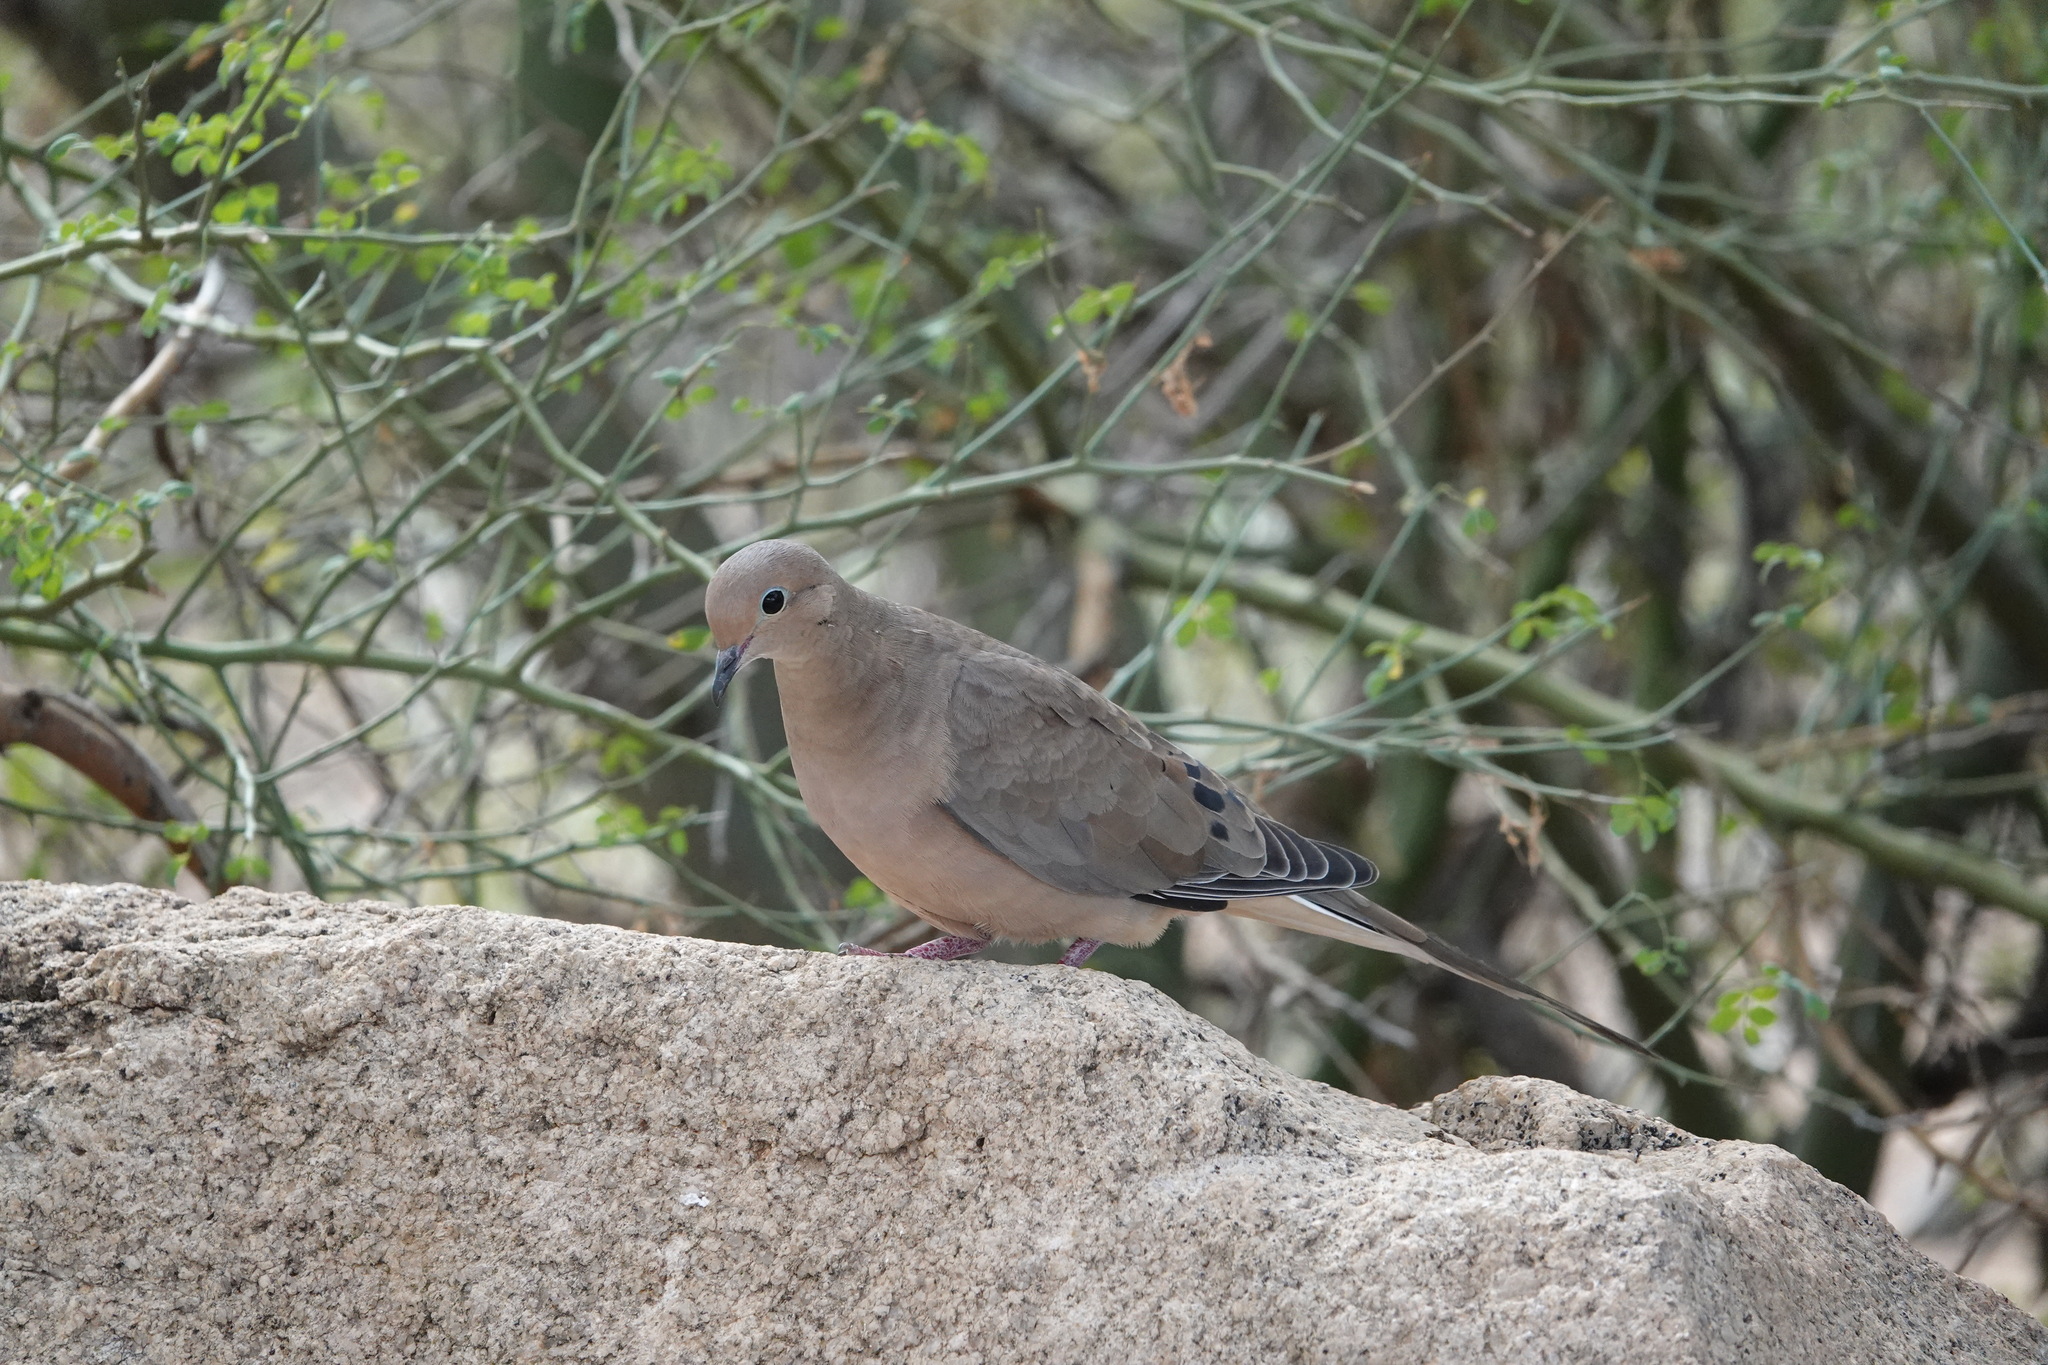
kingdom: Animalia
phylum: Chordata
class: Aves
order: Columbiformes
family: Columbidae
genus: Zenaida
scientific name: Zenaida macroura
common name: Mourning dove
